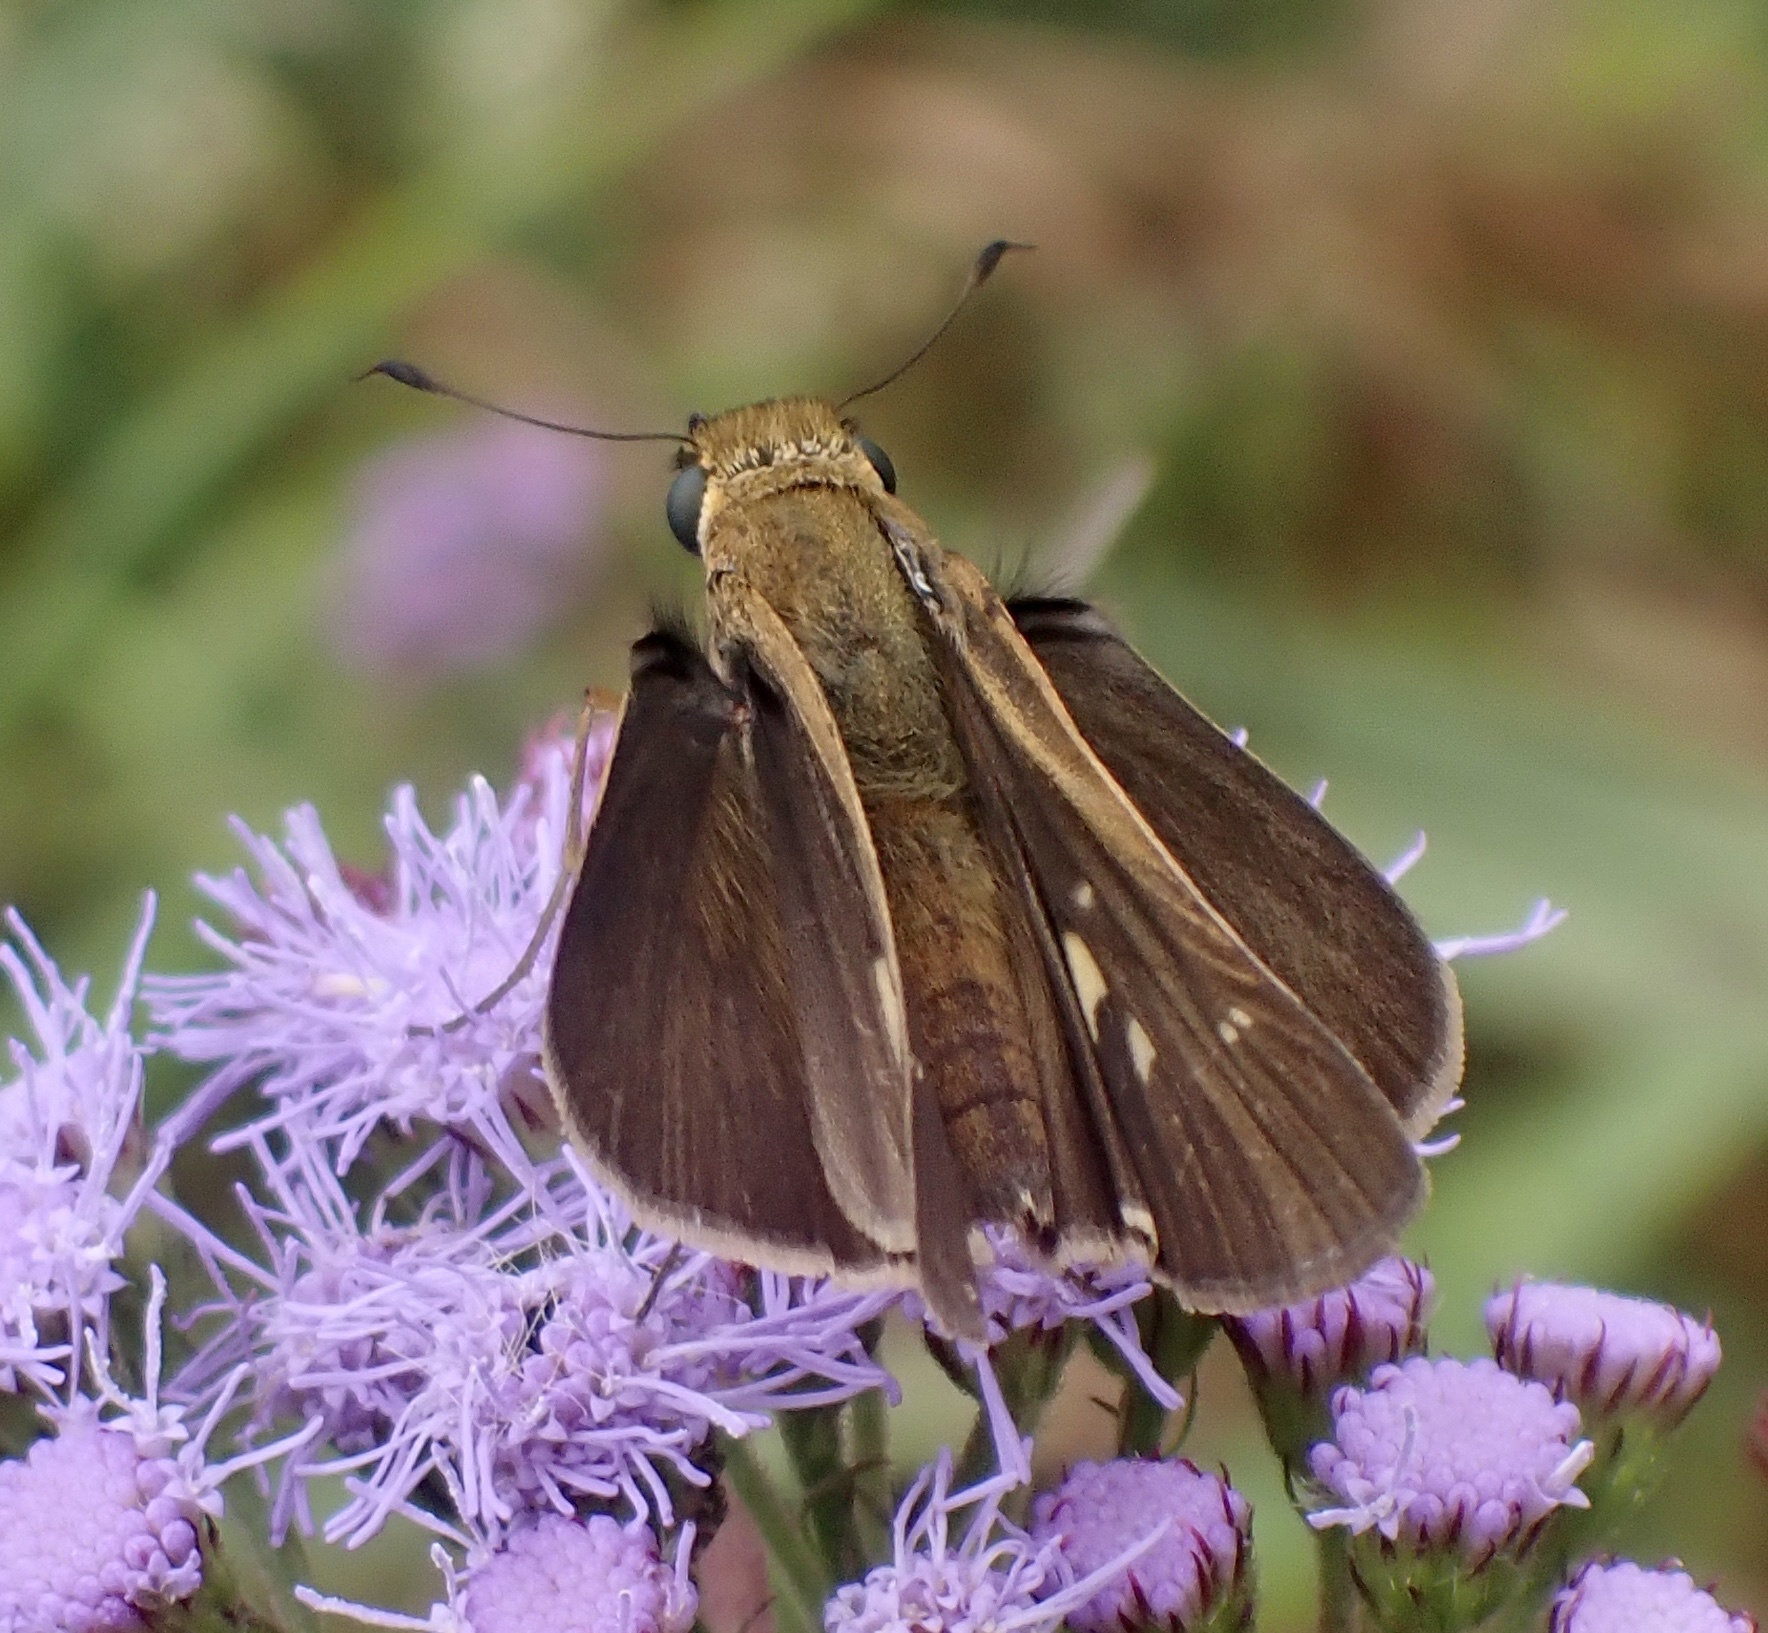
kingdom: Animalia
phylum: Arthropoda
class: Insecta
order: Lepidoptera
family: Hesperiidae
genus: Panoquina
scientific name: Panoquina ocola
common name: Ocola skipper
